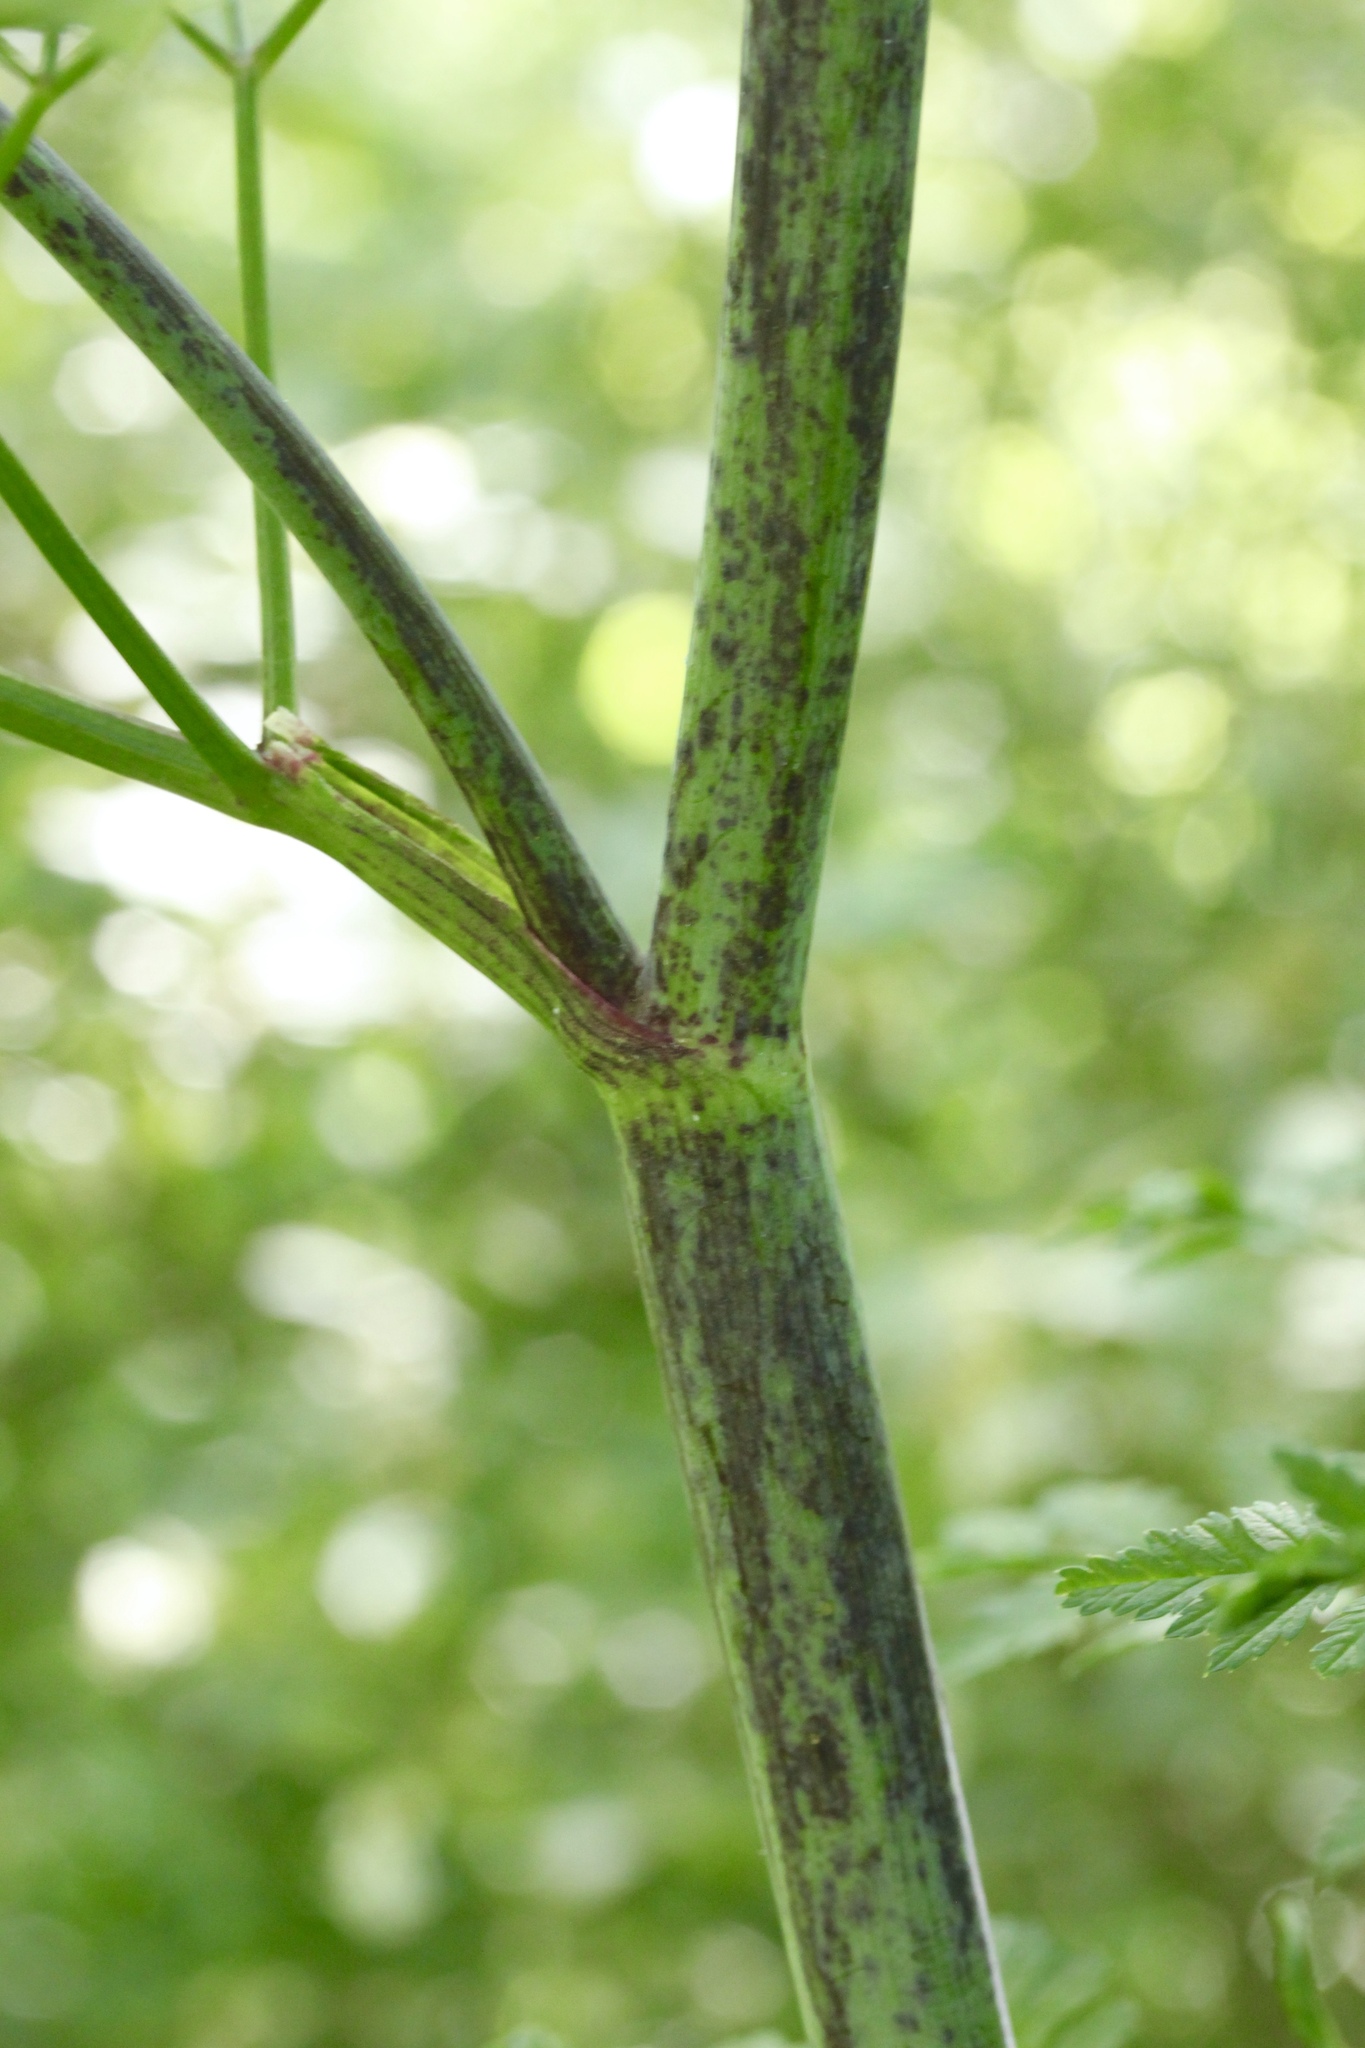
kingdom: Plantae
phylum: Tracheophyta
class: Magnoliopsida
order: Apiales
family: Apiaceae
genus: Conium
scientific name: Conium maculatum
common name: Hemlock
